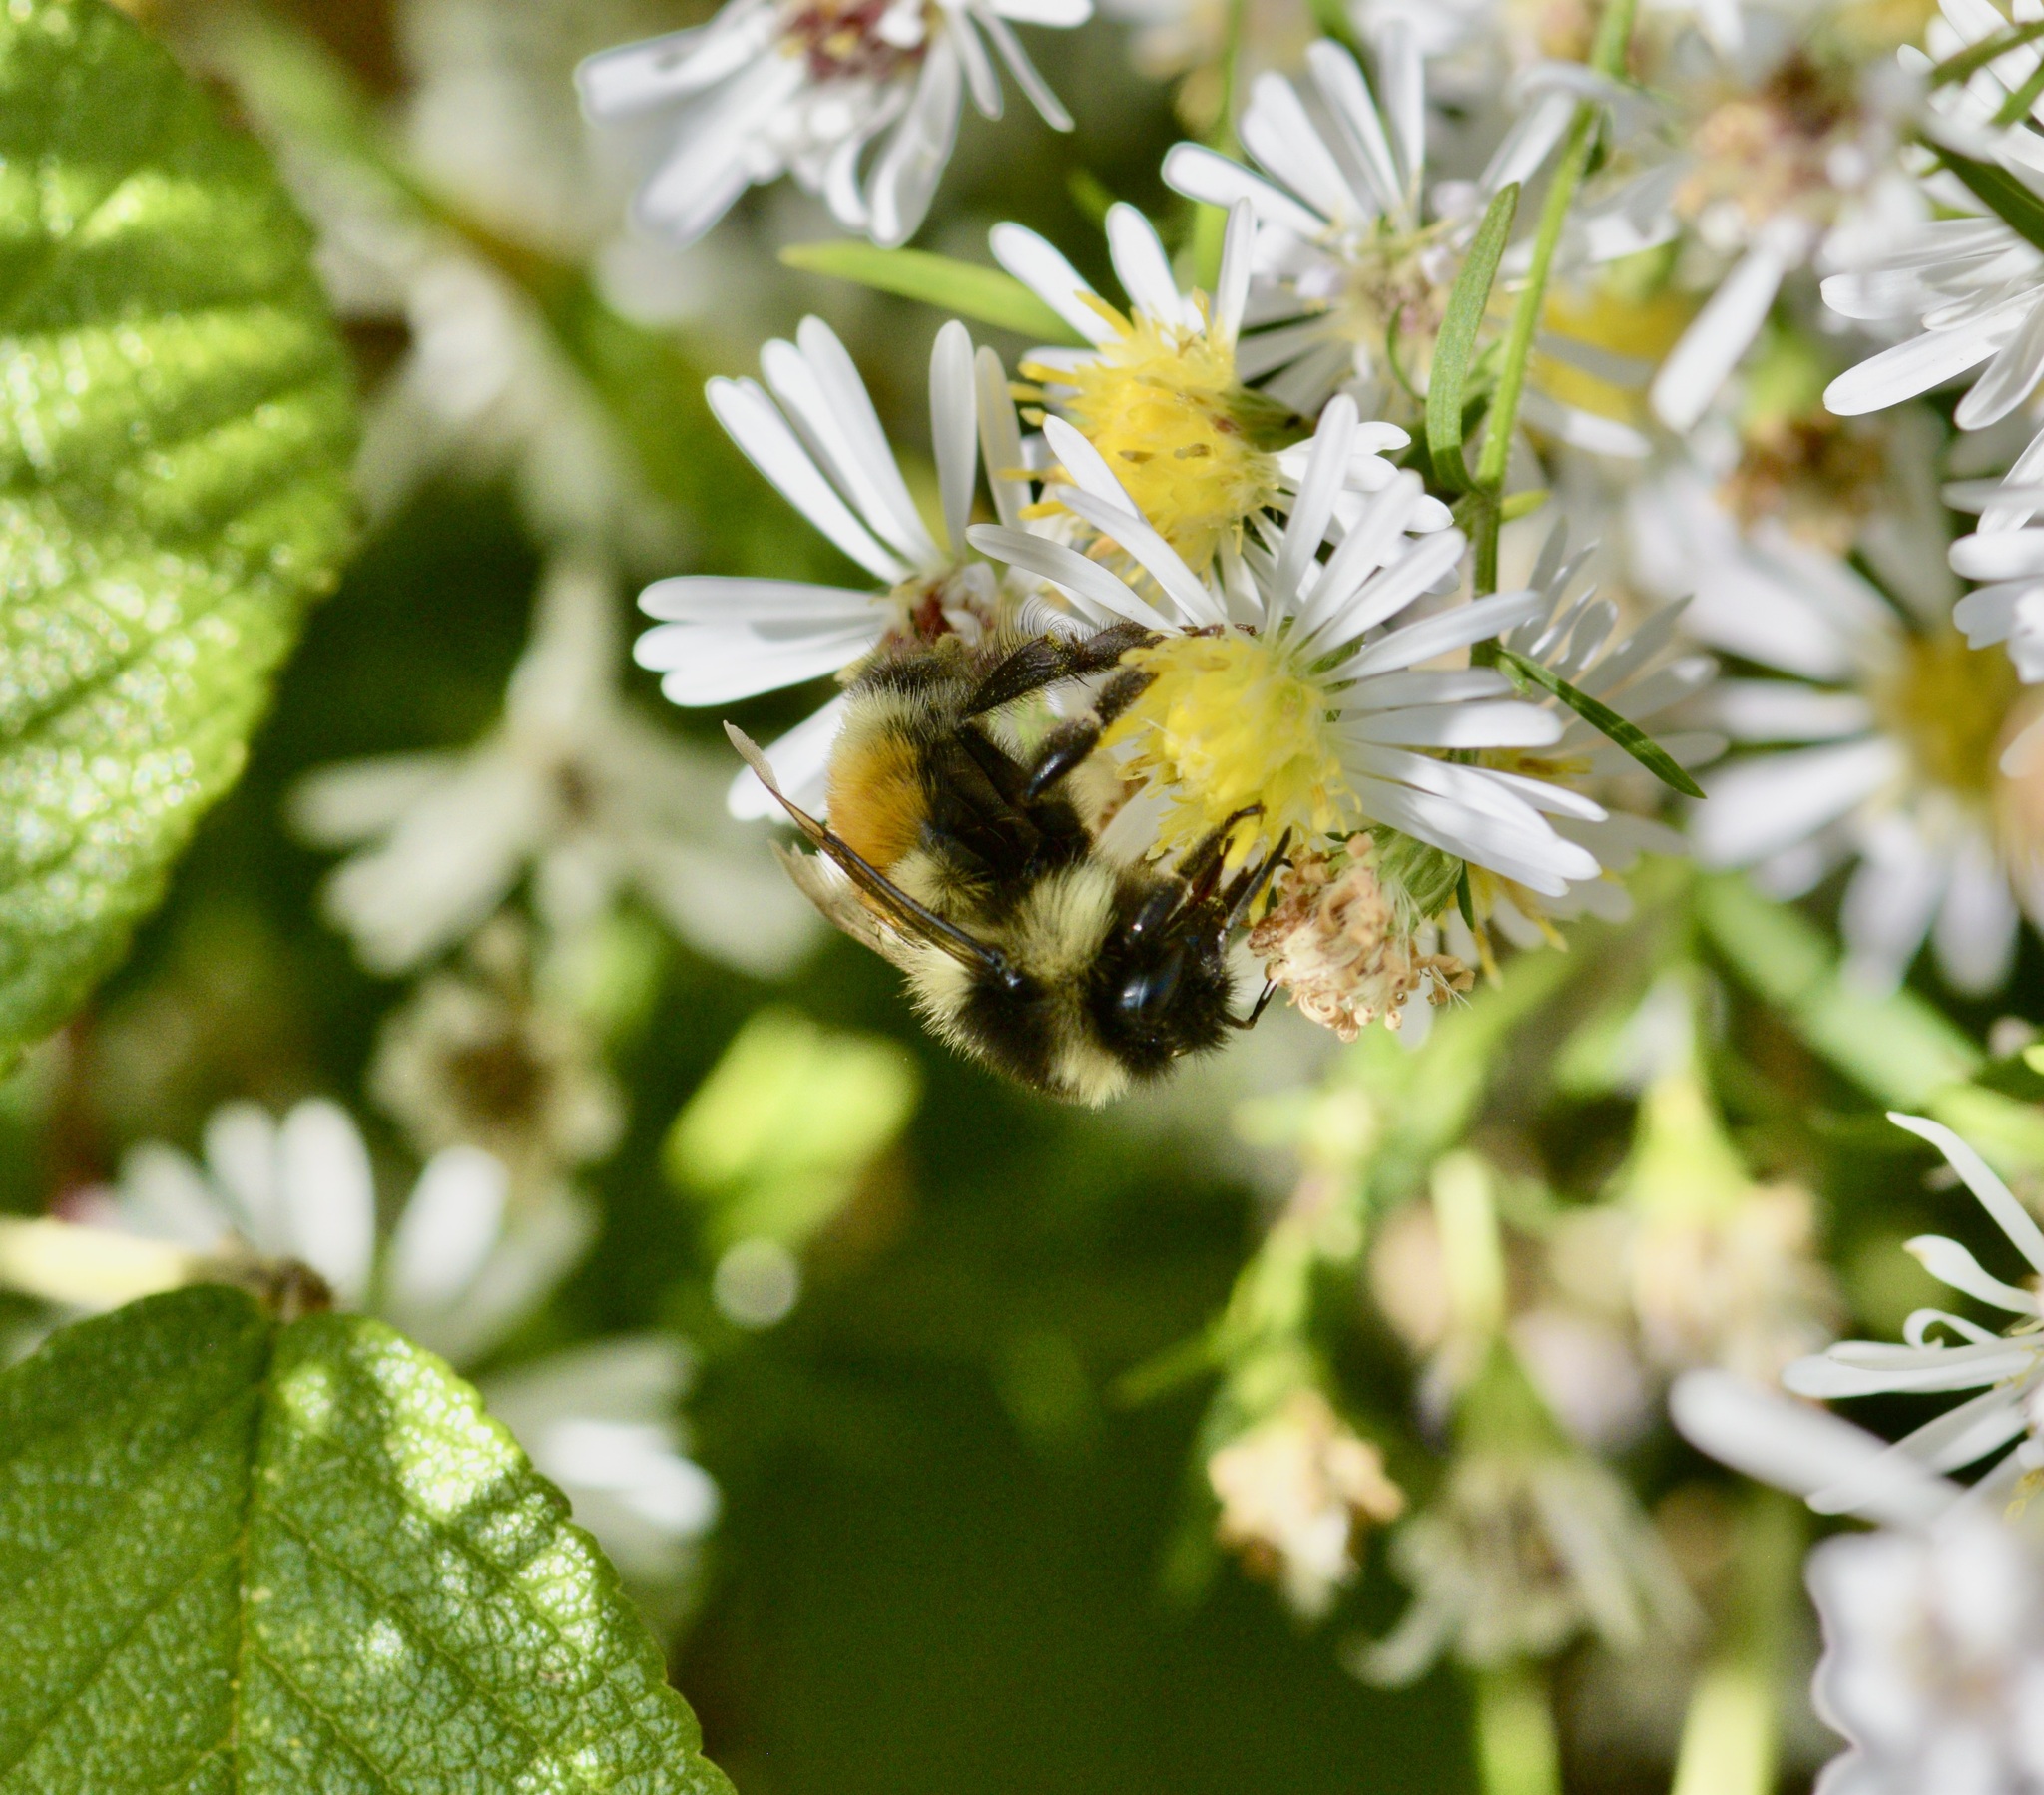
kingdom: Animalia
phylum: Arthropoda
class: Insecta
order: Hymenoptera
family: Apidae
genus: Bombus
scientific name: Bombus ternarius
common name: Tri-colored bumble bee
